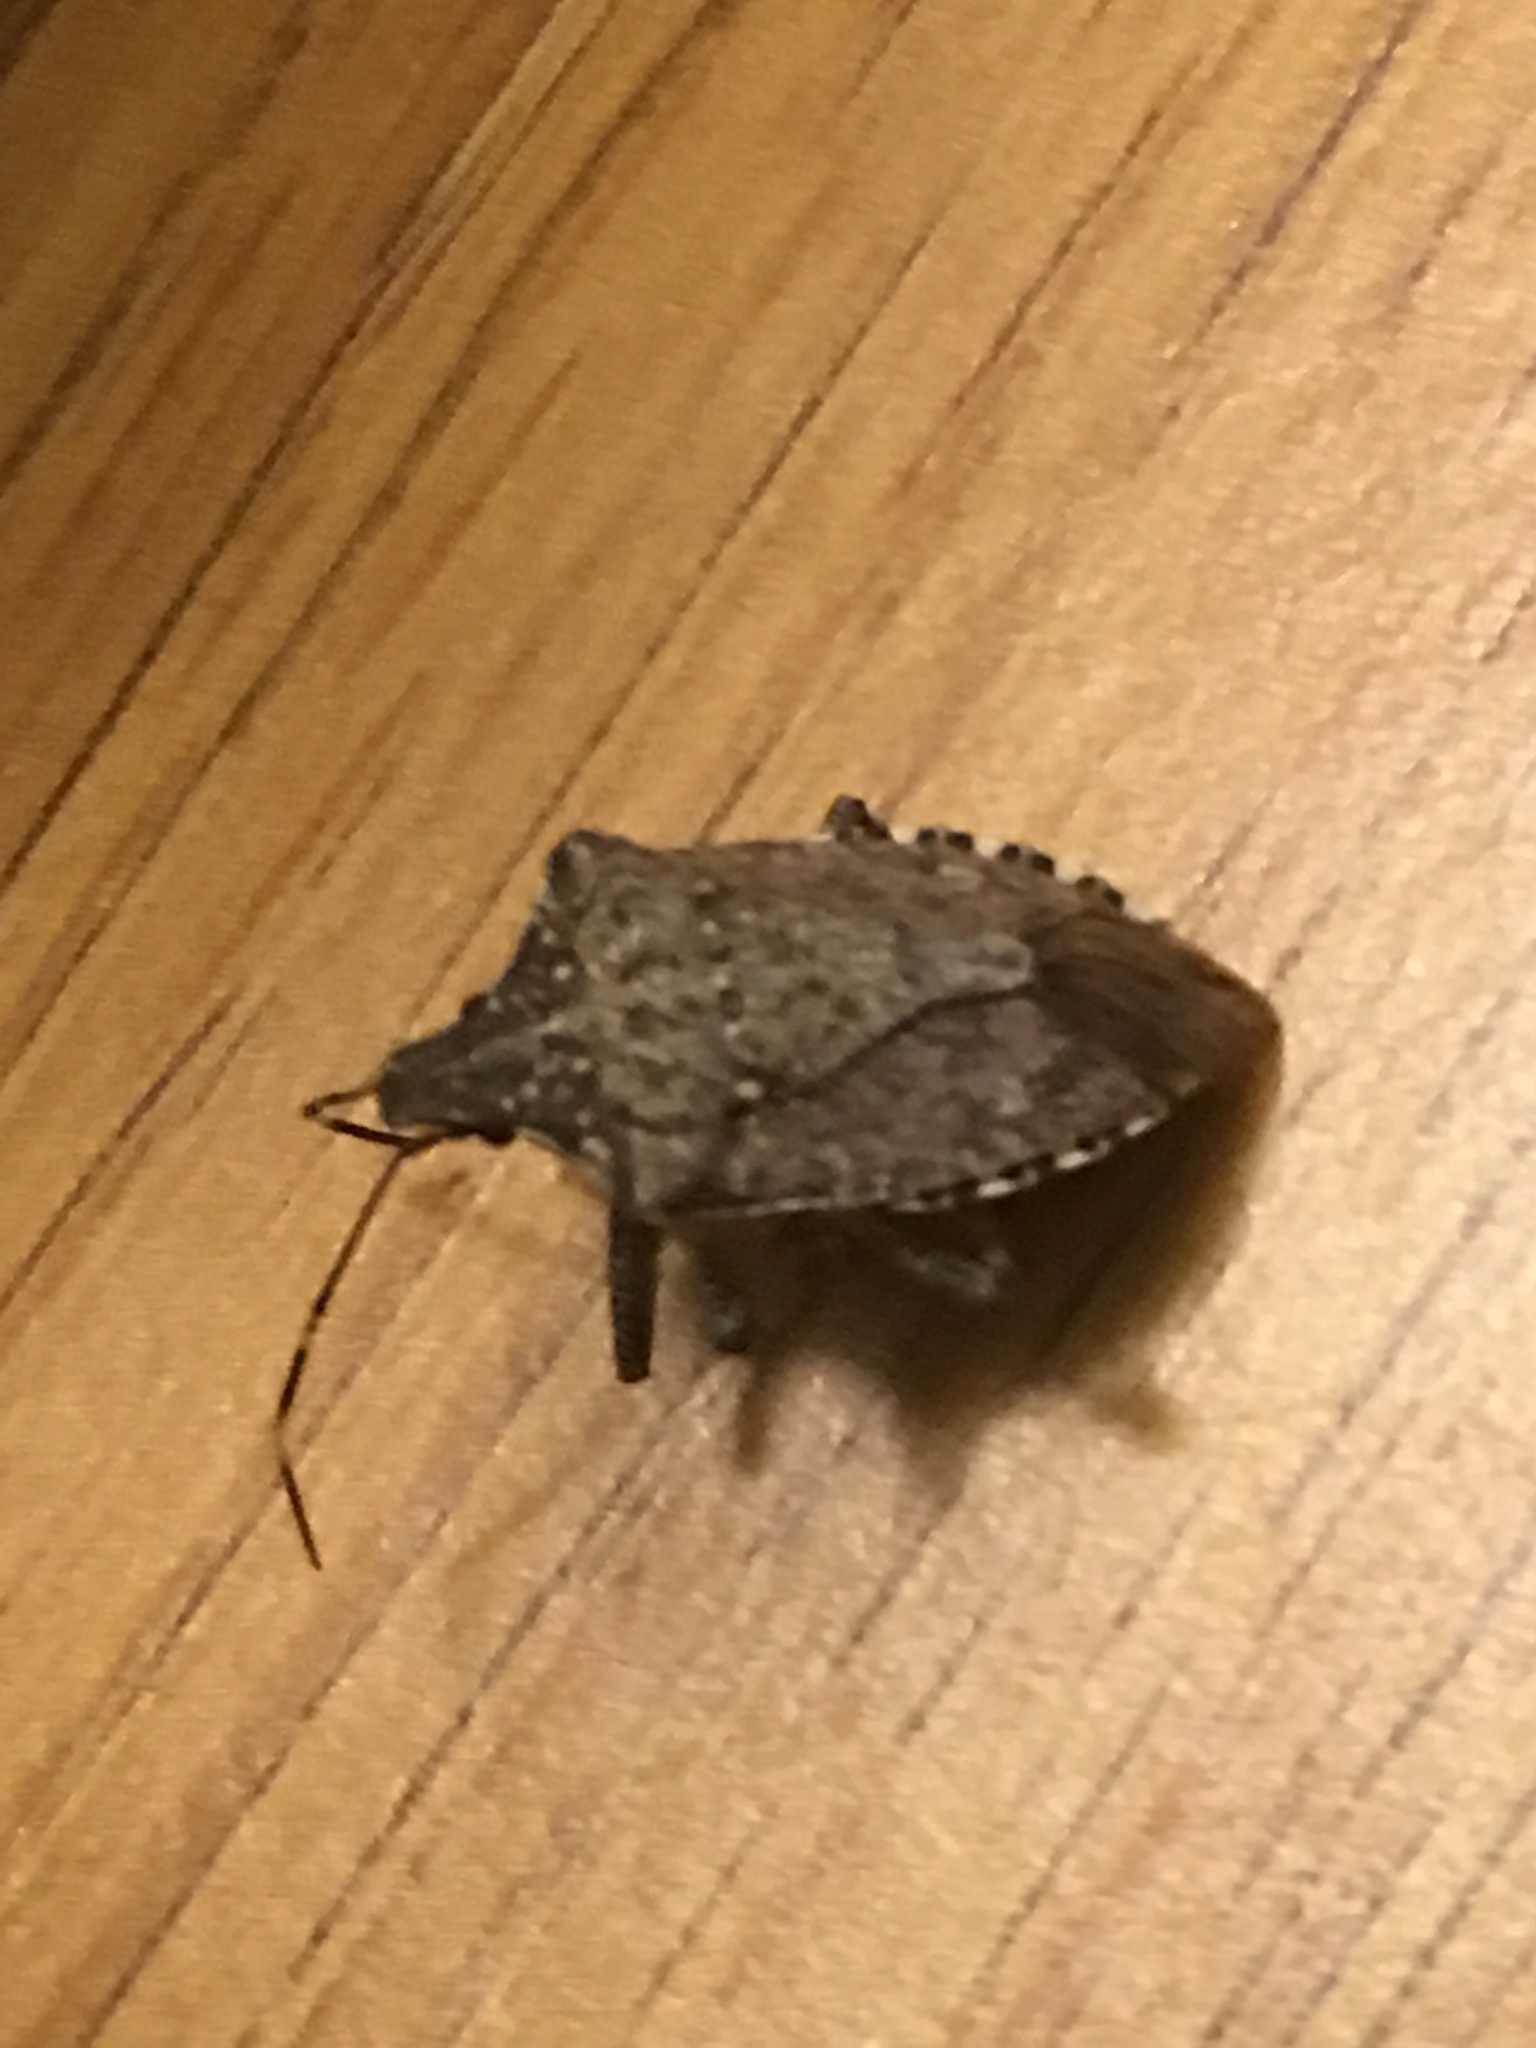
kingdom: Animalia
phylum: Arthropoda
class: Insecta
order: Hemiptera
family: Pentatomidae
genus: Halyomorpha
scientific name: Halyomorpha halys
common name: Brown marmorated stink bug
